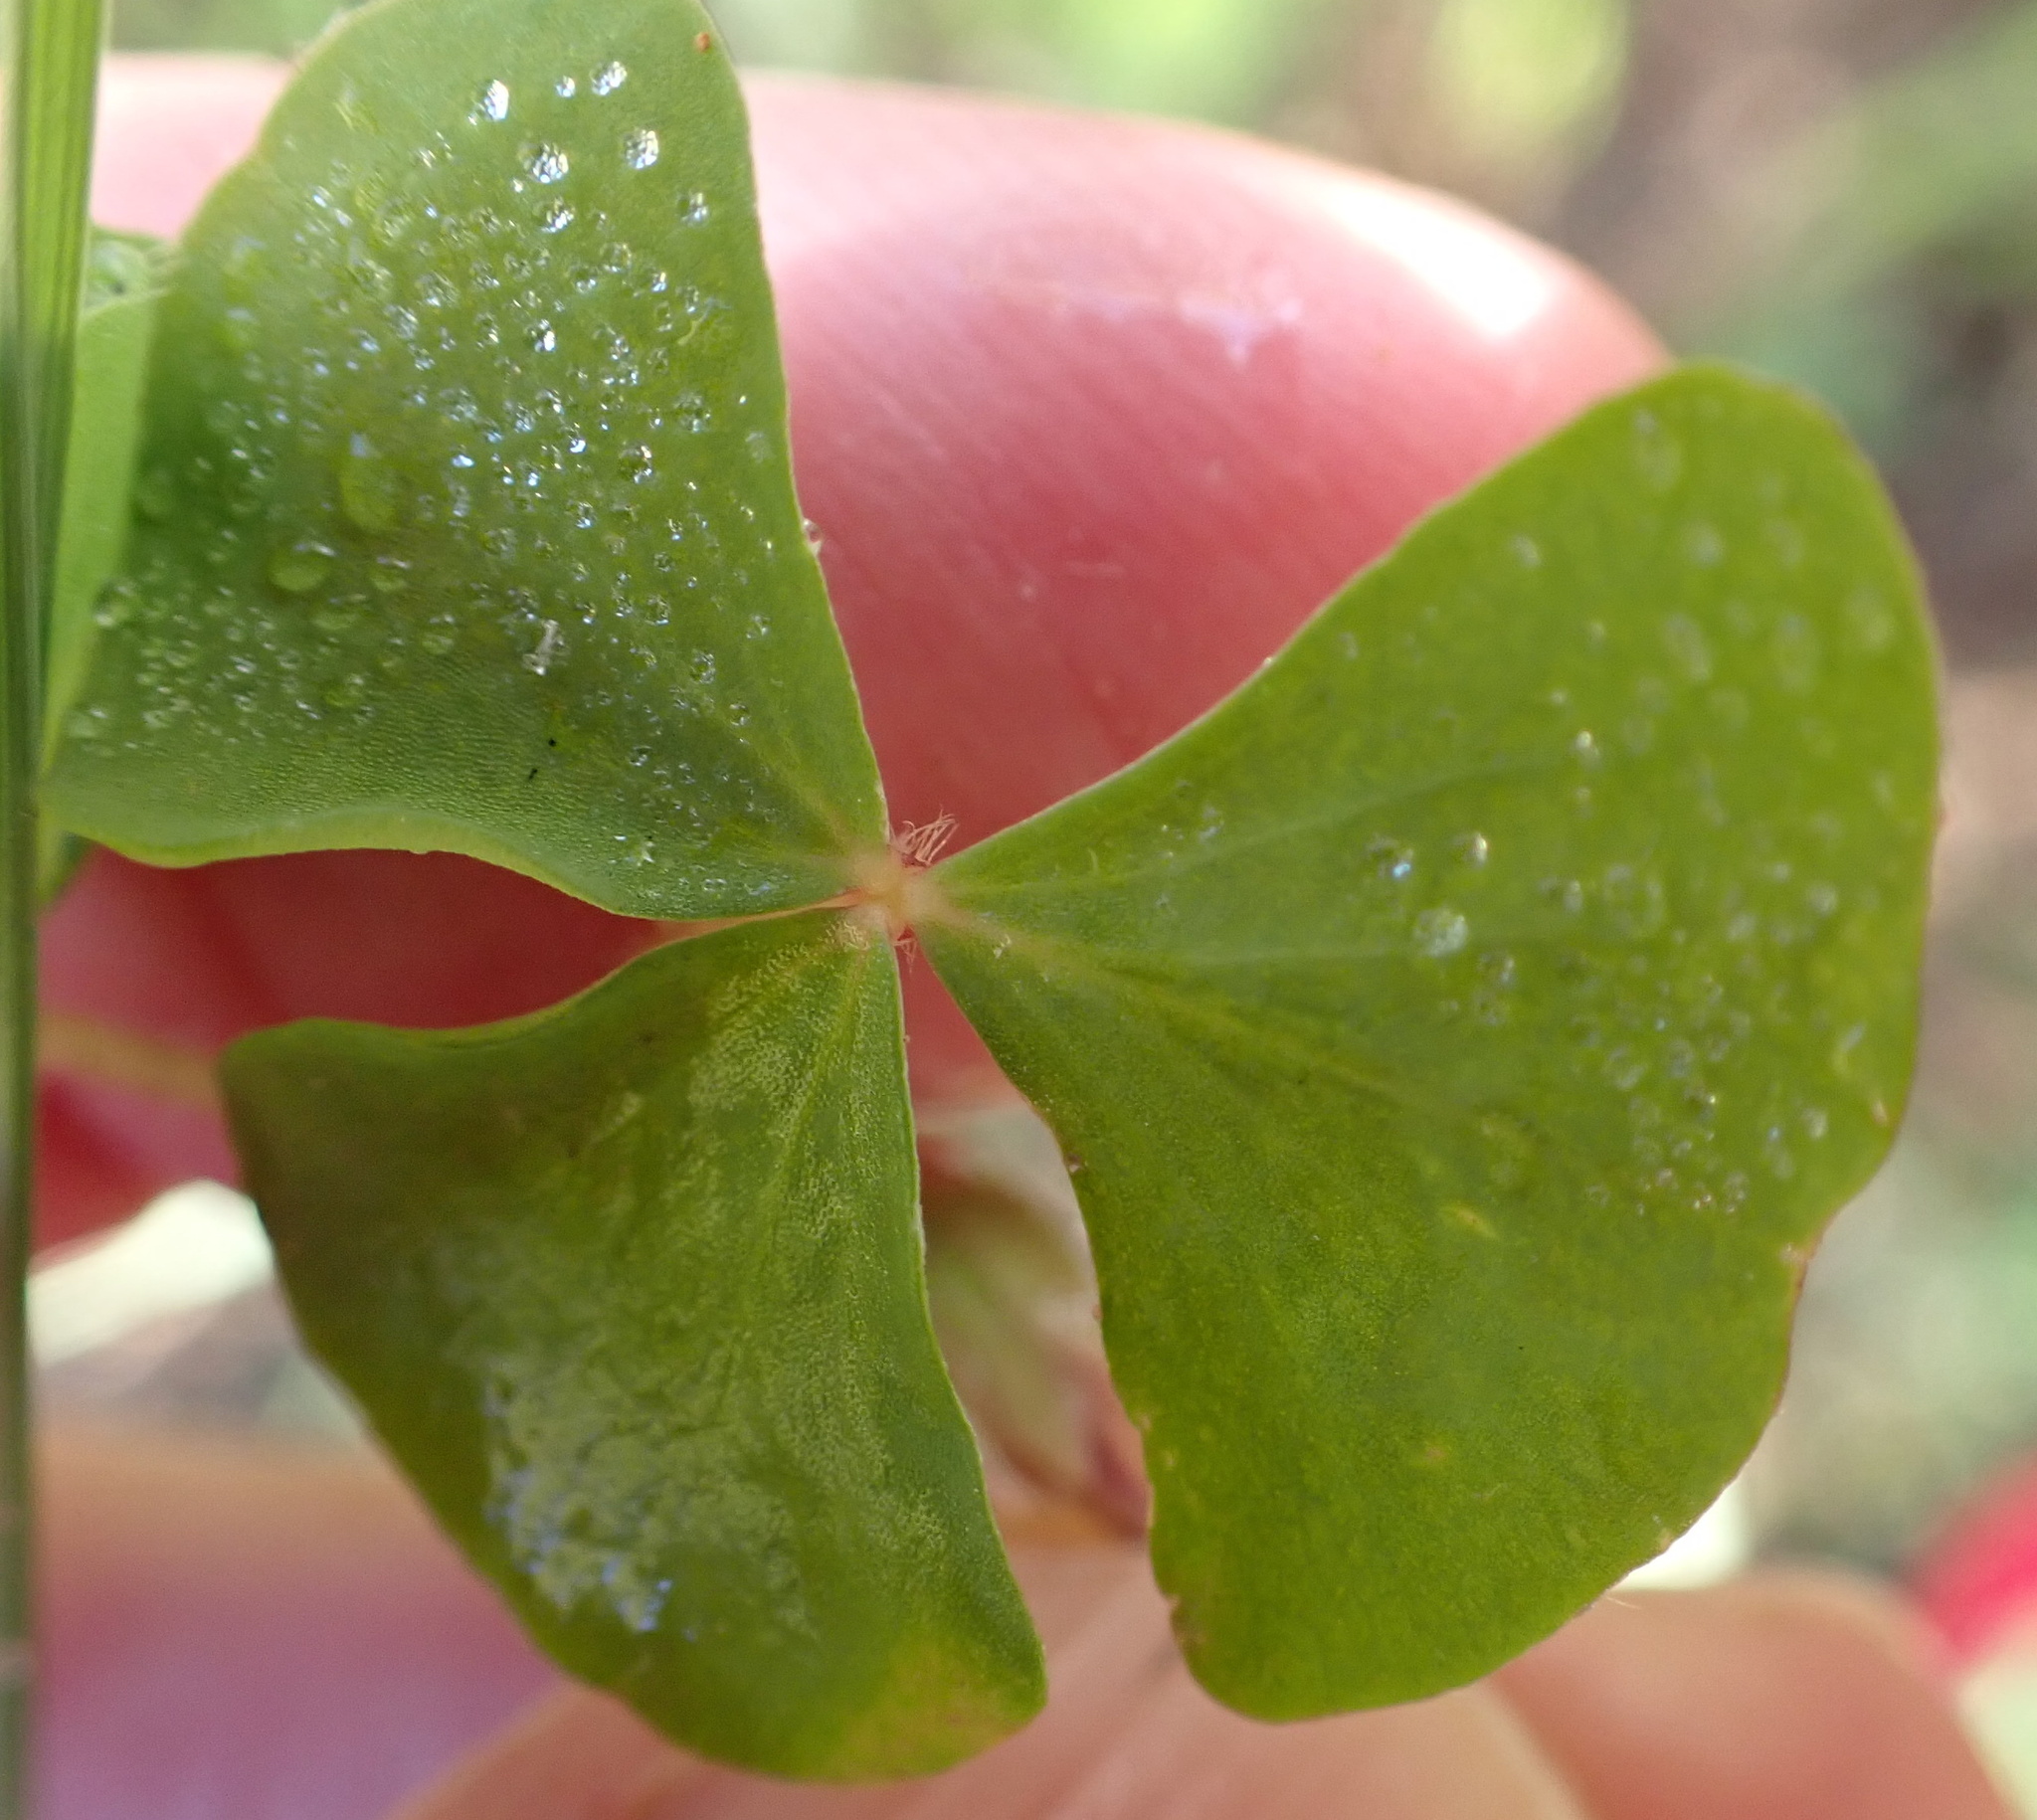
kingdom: Plantae
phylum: Tracheophyta
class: Magnoliopsida
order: Oxalidales
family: Oxalidaceae
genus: Oxalis
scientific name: Oxalis obliquifolia
